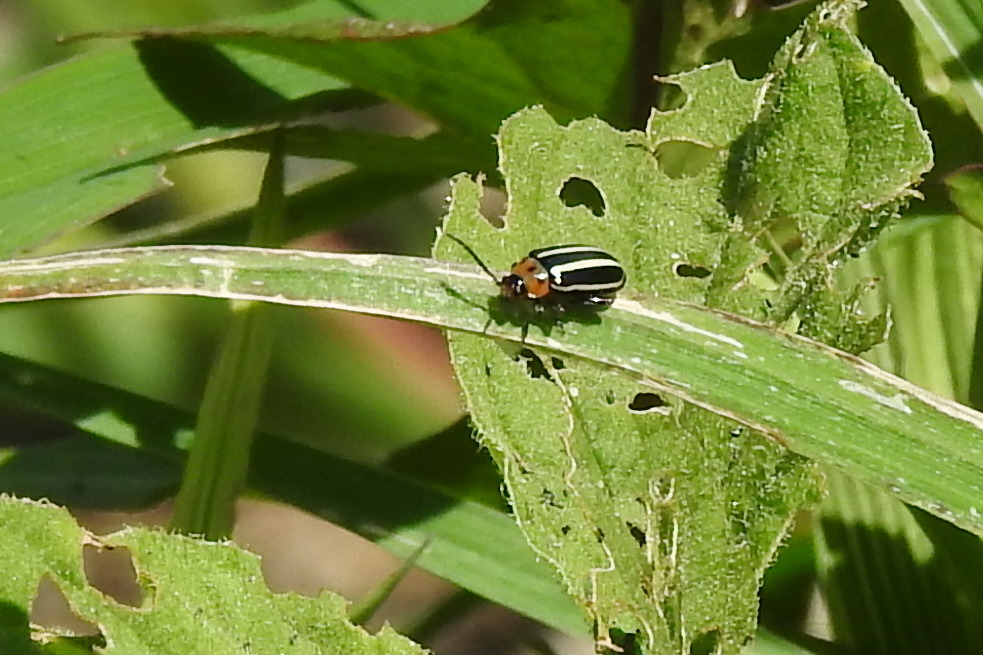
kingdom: Animalia
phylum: Arthropoda
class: Insecta
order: Coleoptera
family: Chrysomelidae
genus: Disonycha
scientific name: Disonycha glabrata
